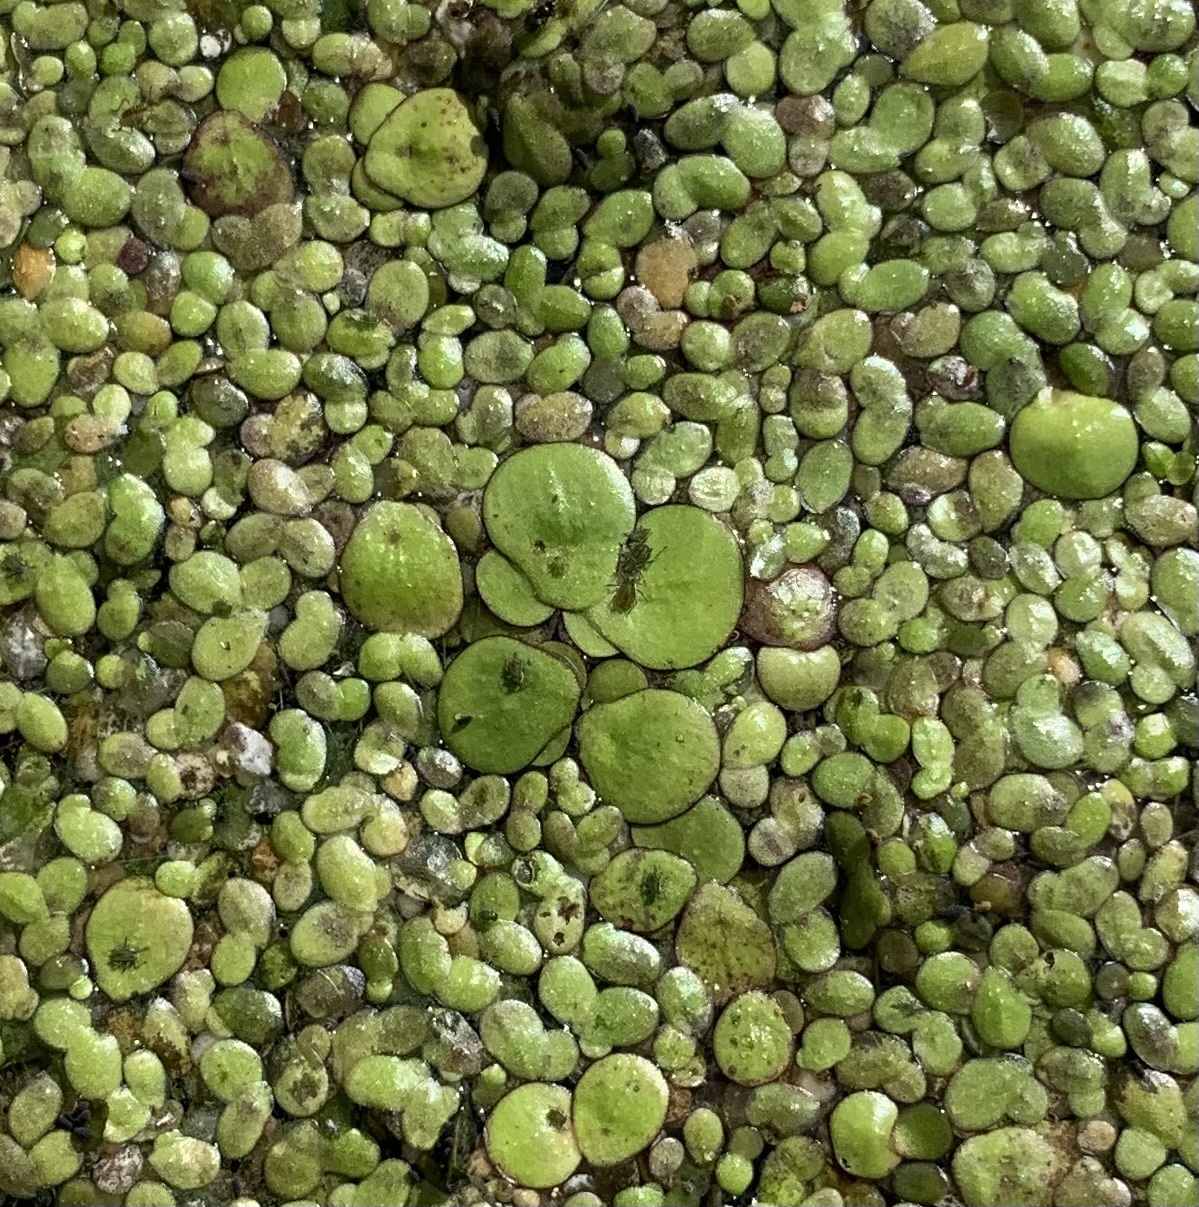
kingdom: Plantae
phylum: Tracheophyta
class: Liliopsida
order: Alismatales
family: Araceae
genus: Spirodela
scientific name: Spirodela polyrhiza
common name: Great duckweed
